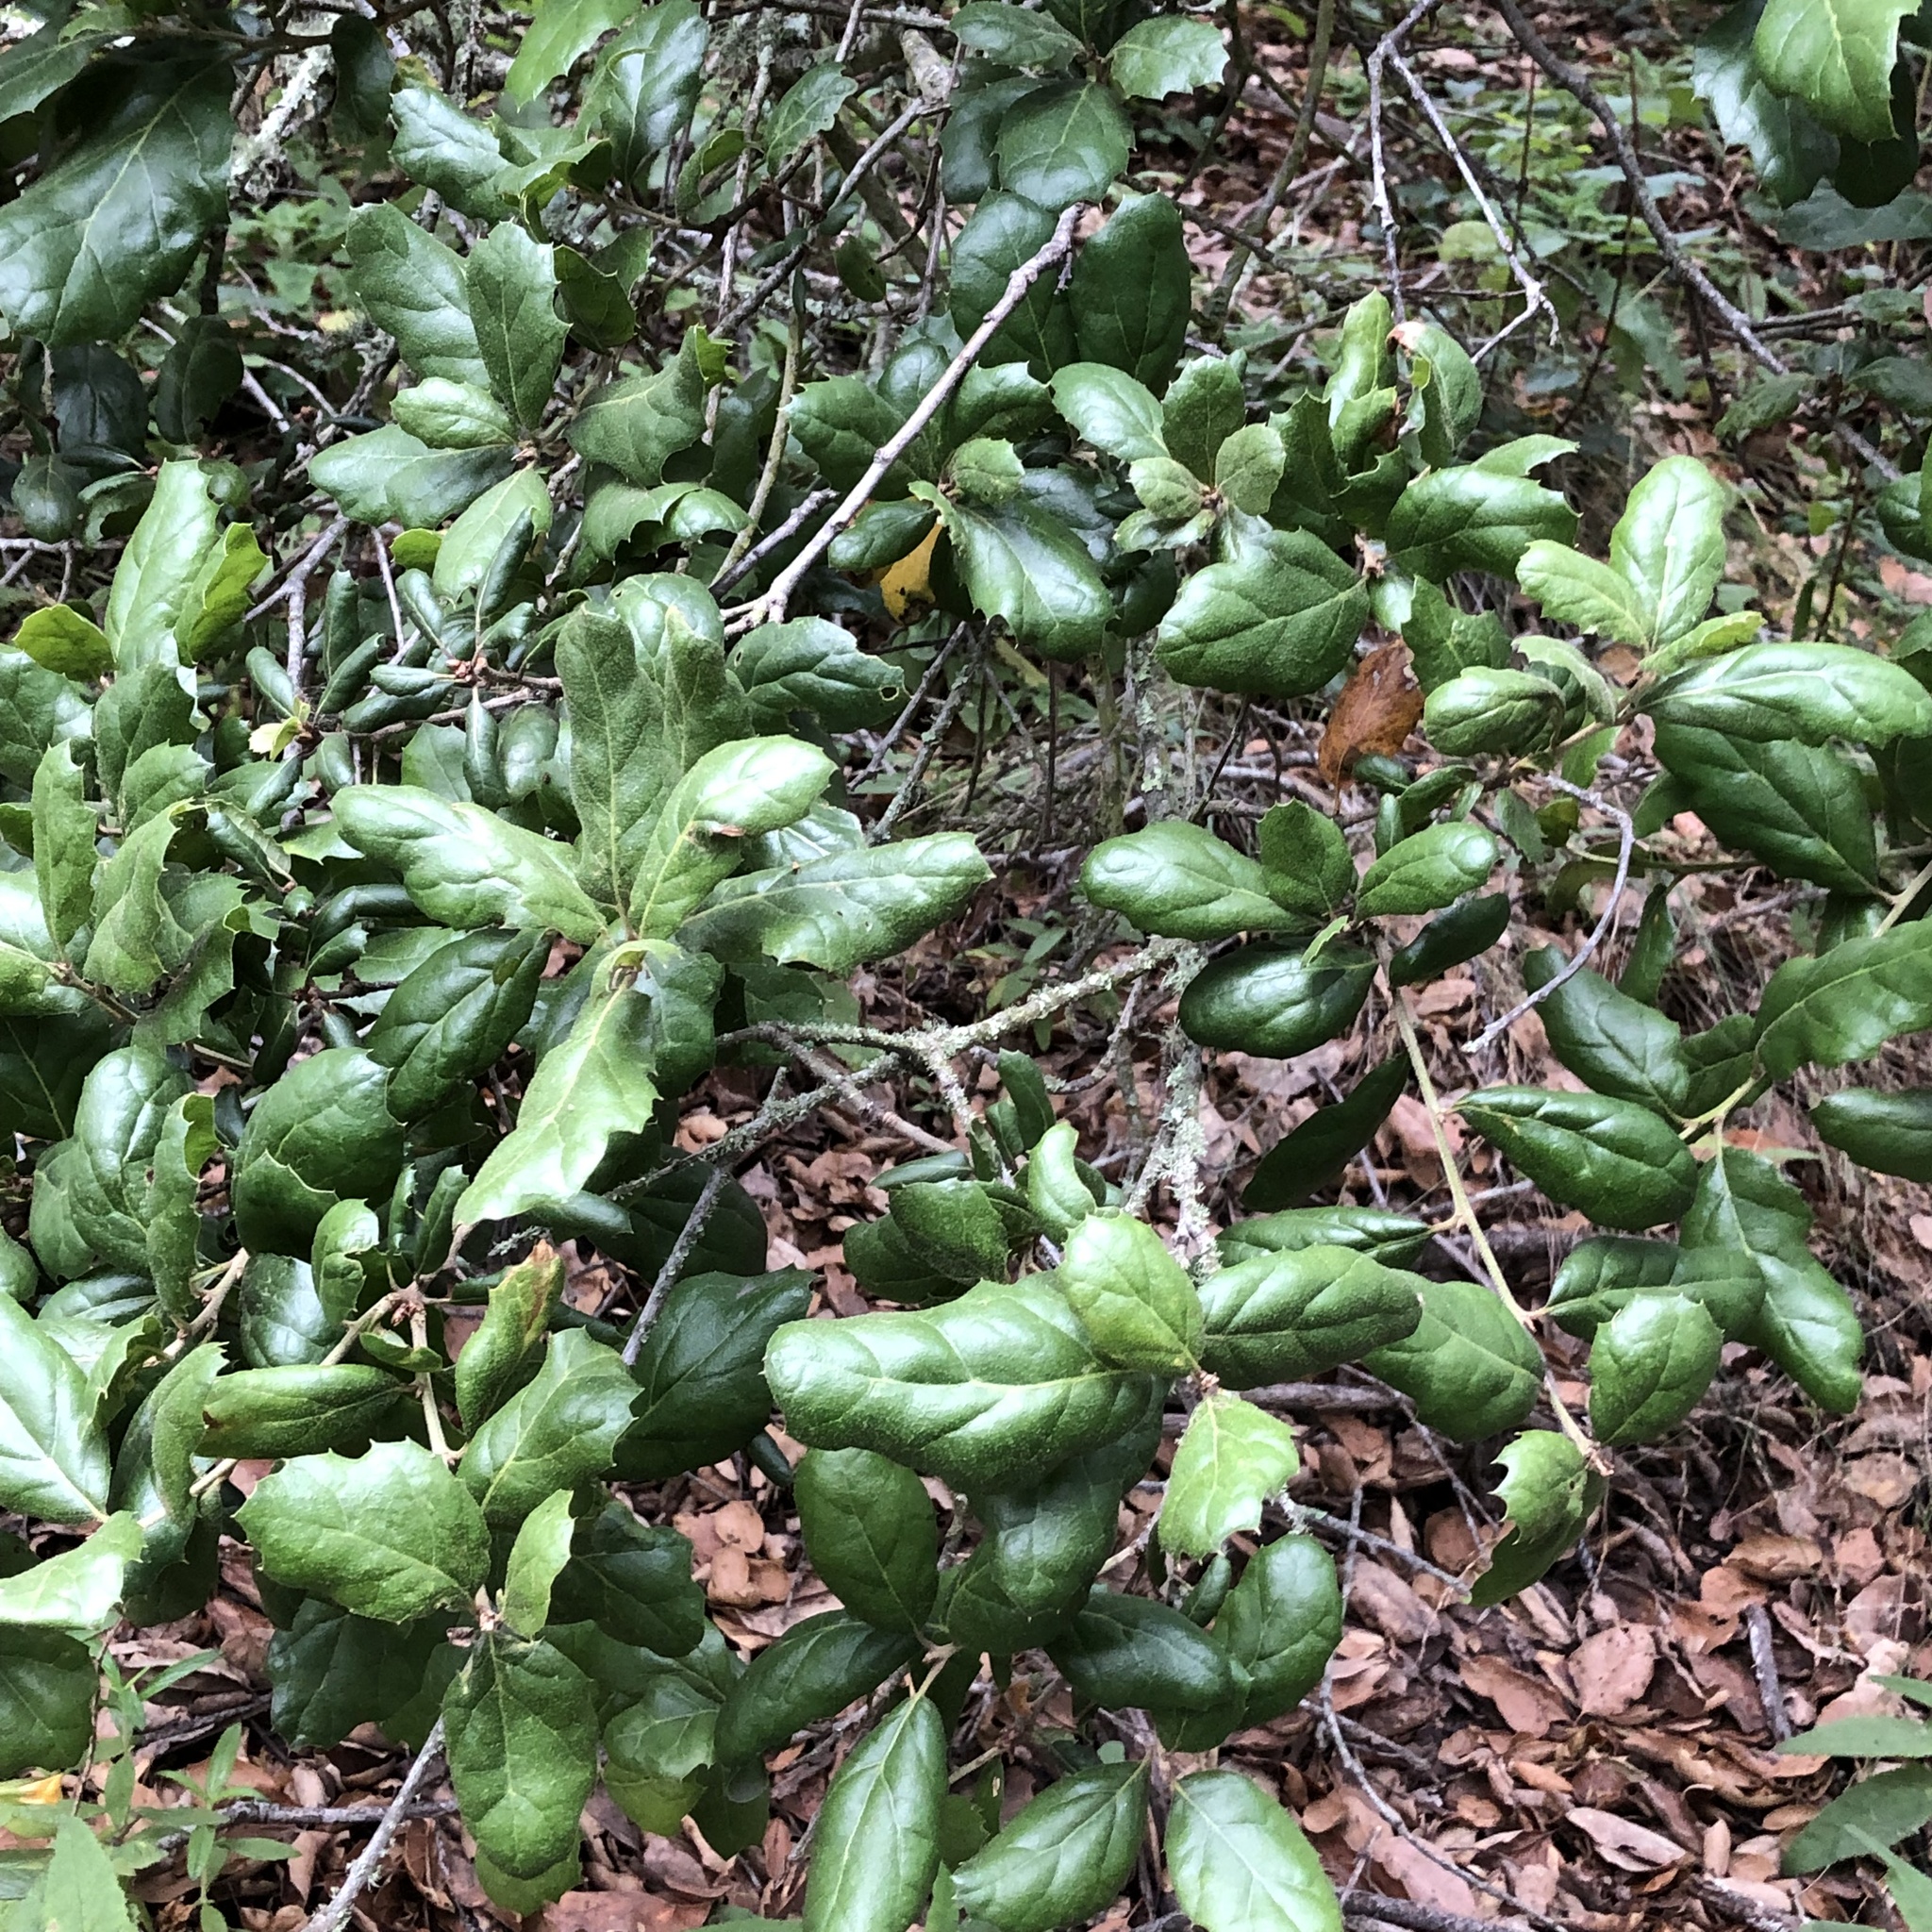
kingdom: Plantae
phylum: Tracheophyta
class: Magnoliopsida
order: Fagales
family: Fagaceae
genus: Quercus
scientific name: Quercus agrifolia
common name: California live oak
